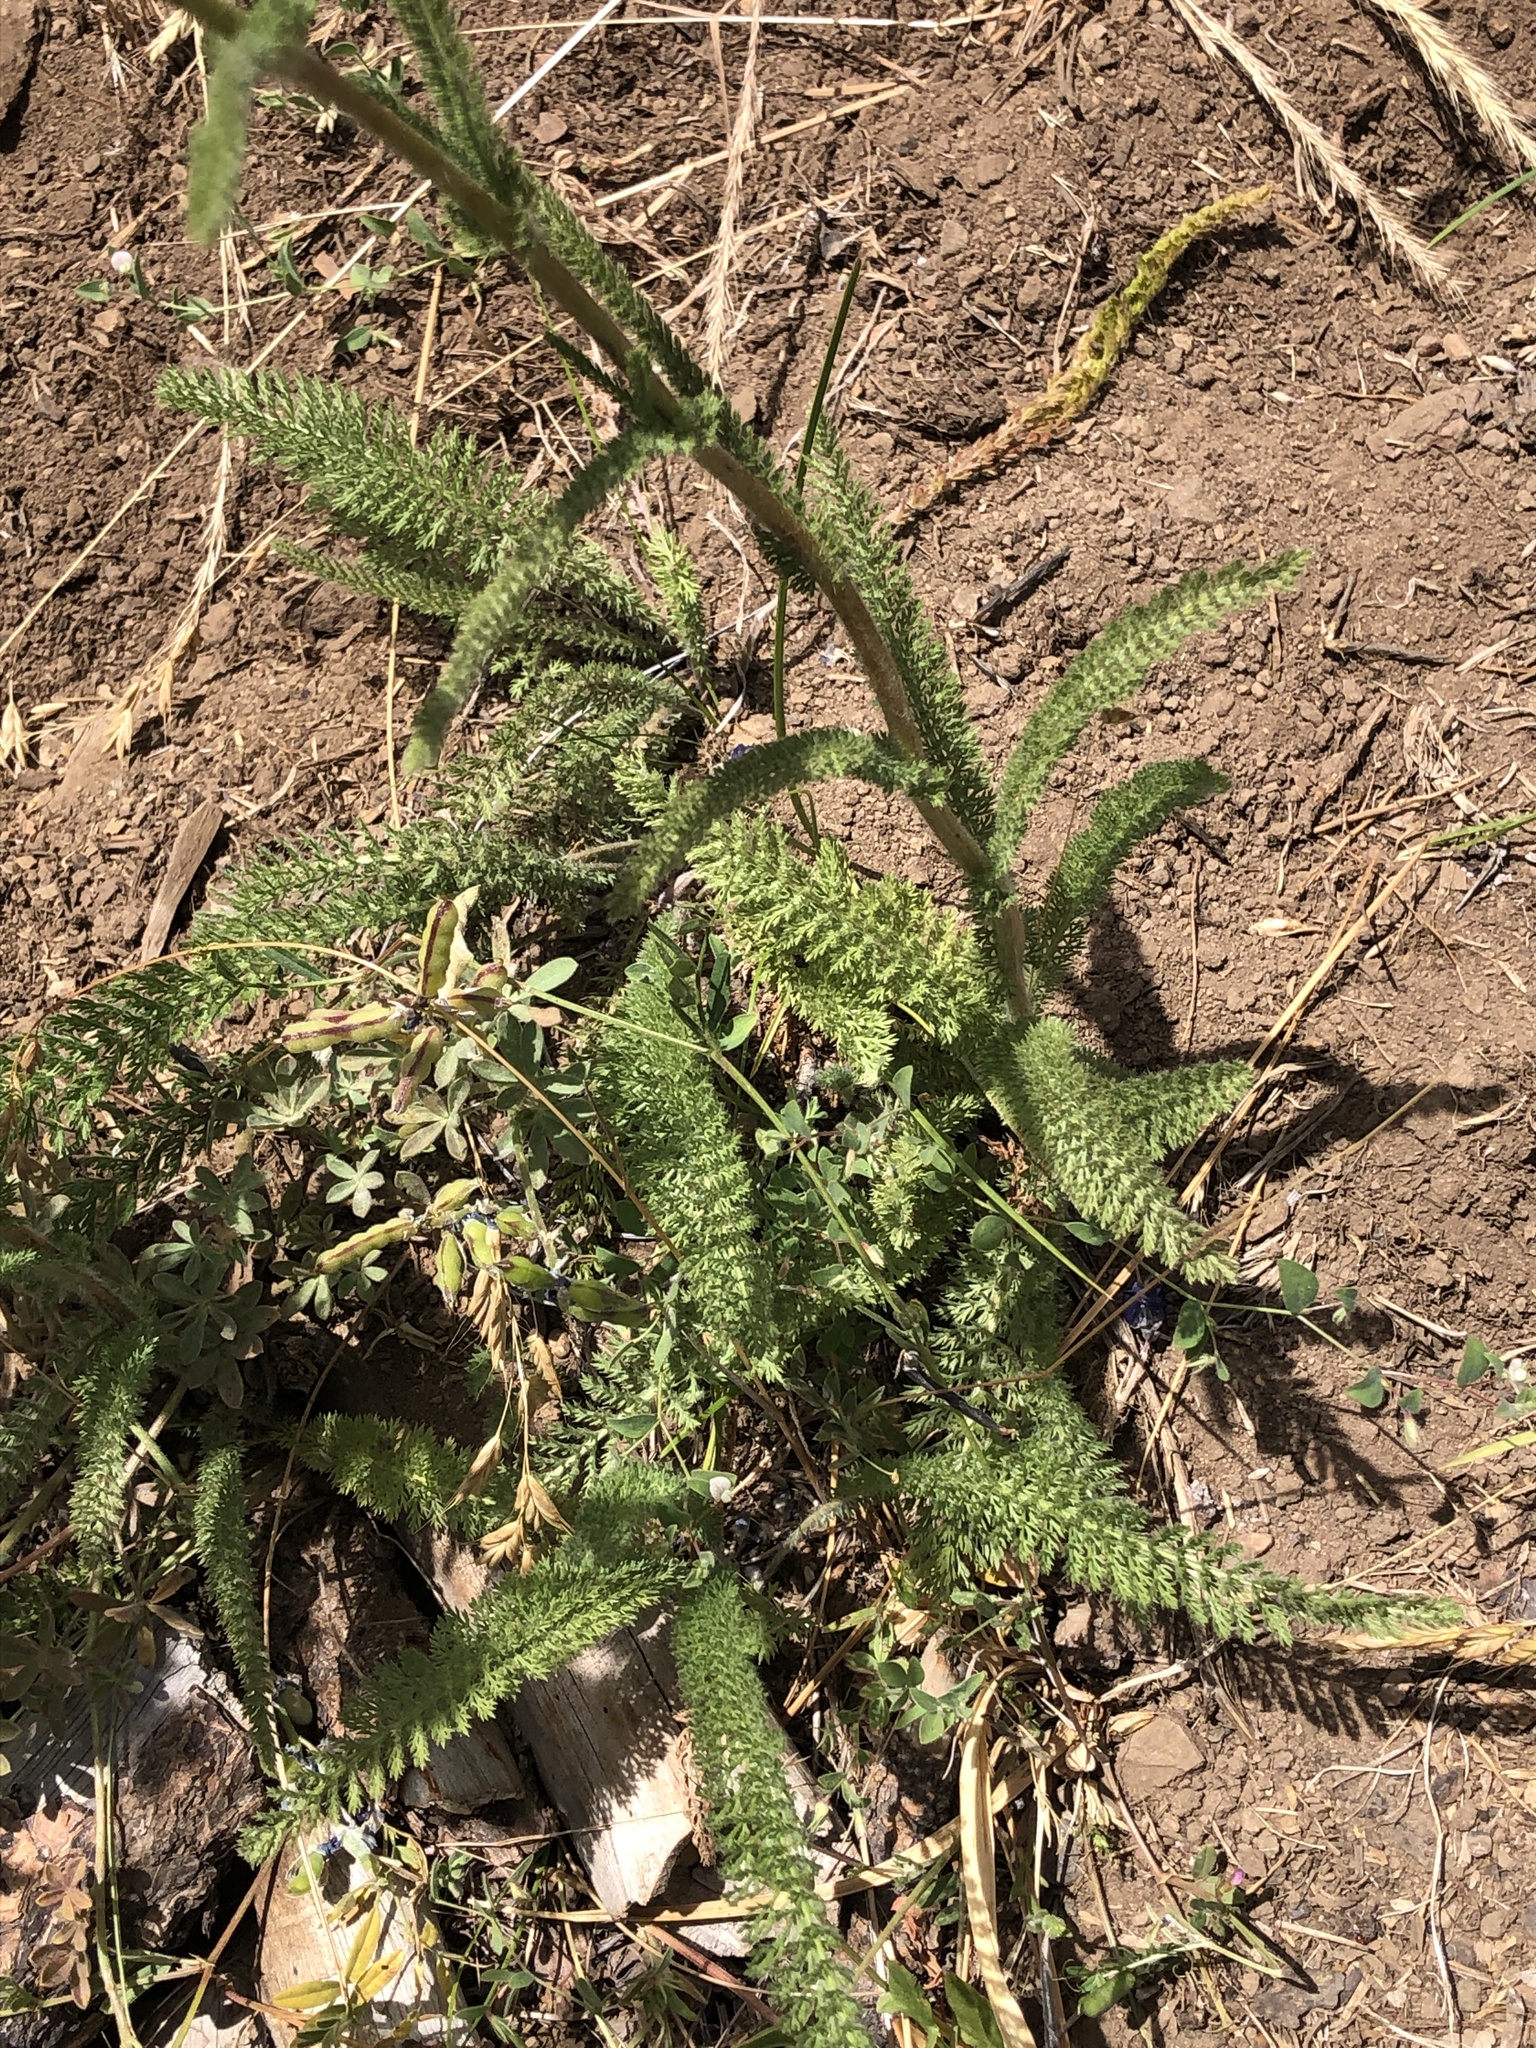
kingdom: Plantae
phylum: Tracheophyta
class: Magnoliopsida
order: Asterales
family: Asteraceae
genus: Achillea
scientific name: Achillea millefolium
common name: Yarrow
